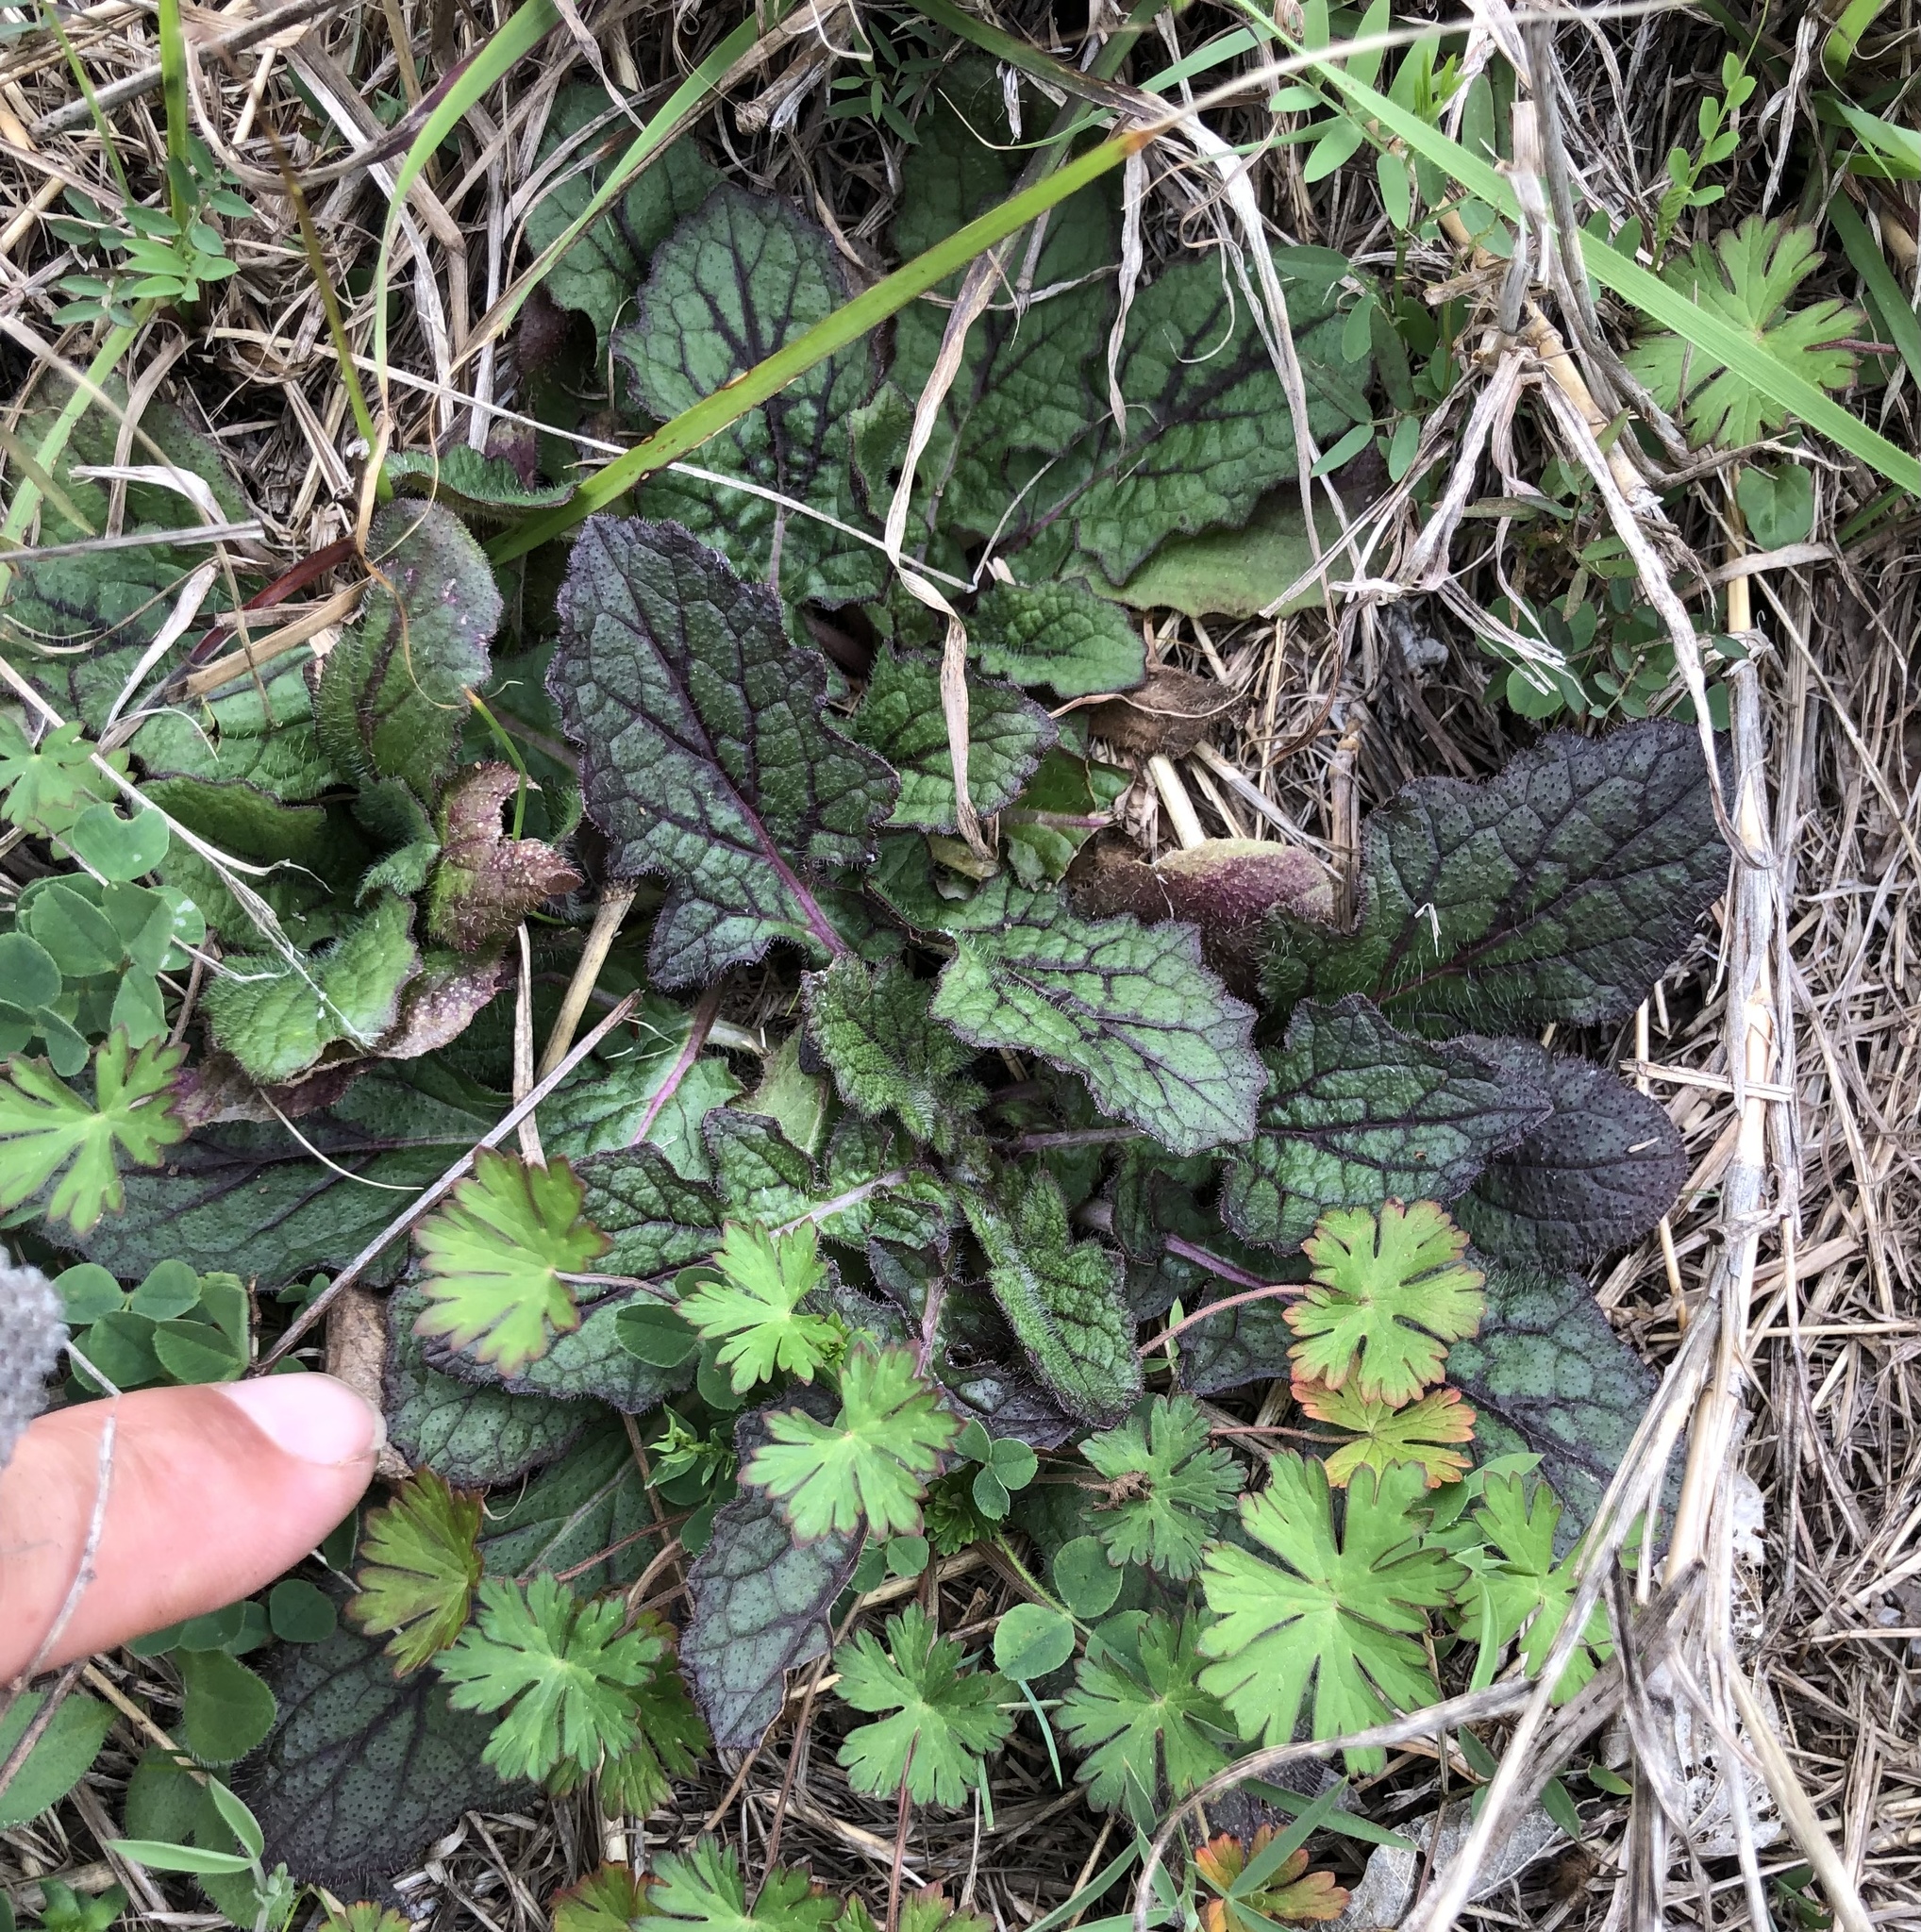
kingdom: Plantae
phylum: Tracheophyta
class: Magnoliopsida
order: Lamiales
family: Lamiaceae
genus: Salvia
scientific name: Salvia lyrata
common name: Cancerweed
